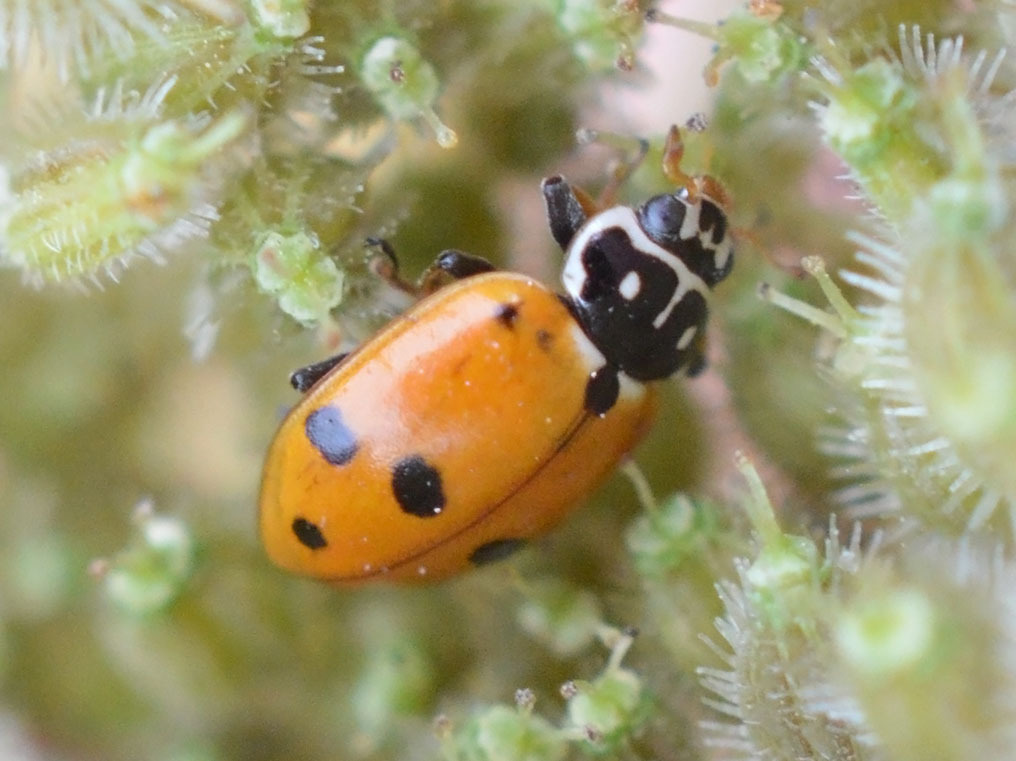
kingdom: Animalia
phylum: Arthropoda
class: Insecta
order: Coleoptera
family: Coccinellidae
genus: Hippodamia
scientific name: Hippodamia variegata
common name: Ladybird beetle
